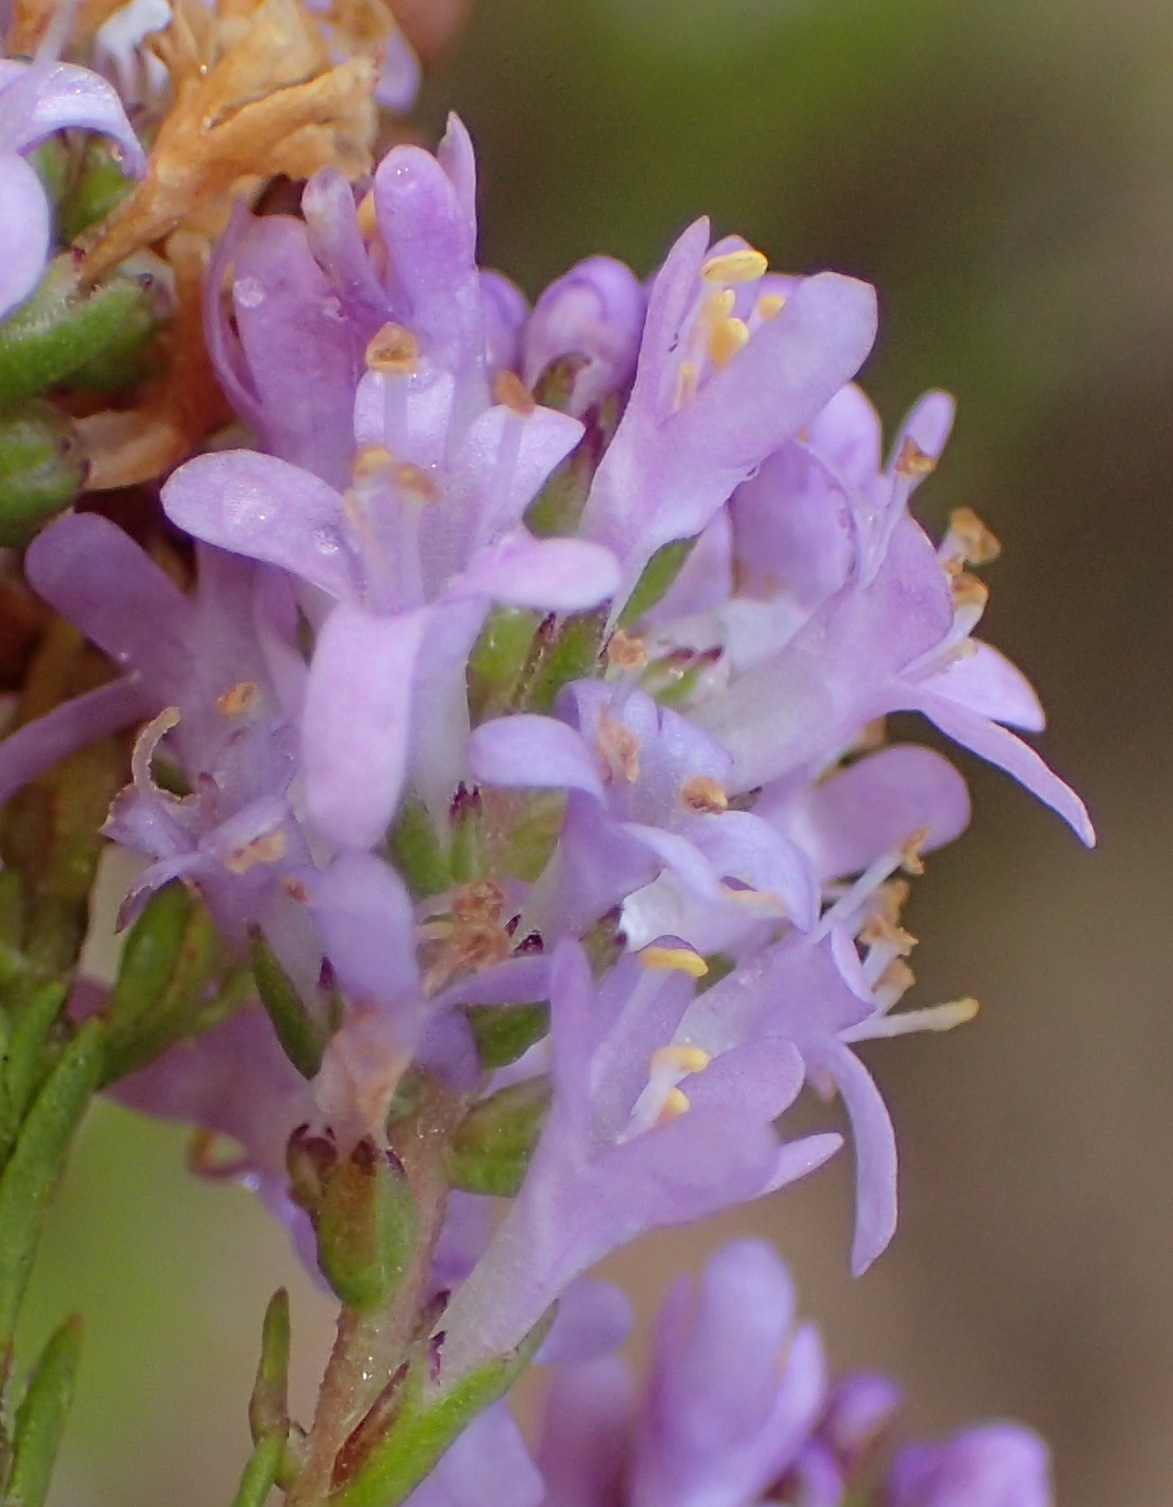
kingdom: Plantae
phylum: Tracheophyta
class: Magnoliopsida
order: Lamiales
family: Scrophulariaceae
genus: Selago
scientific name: Selago canescens
